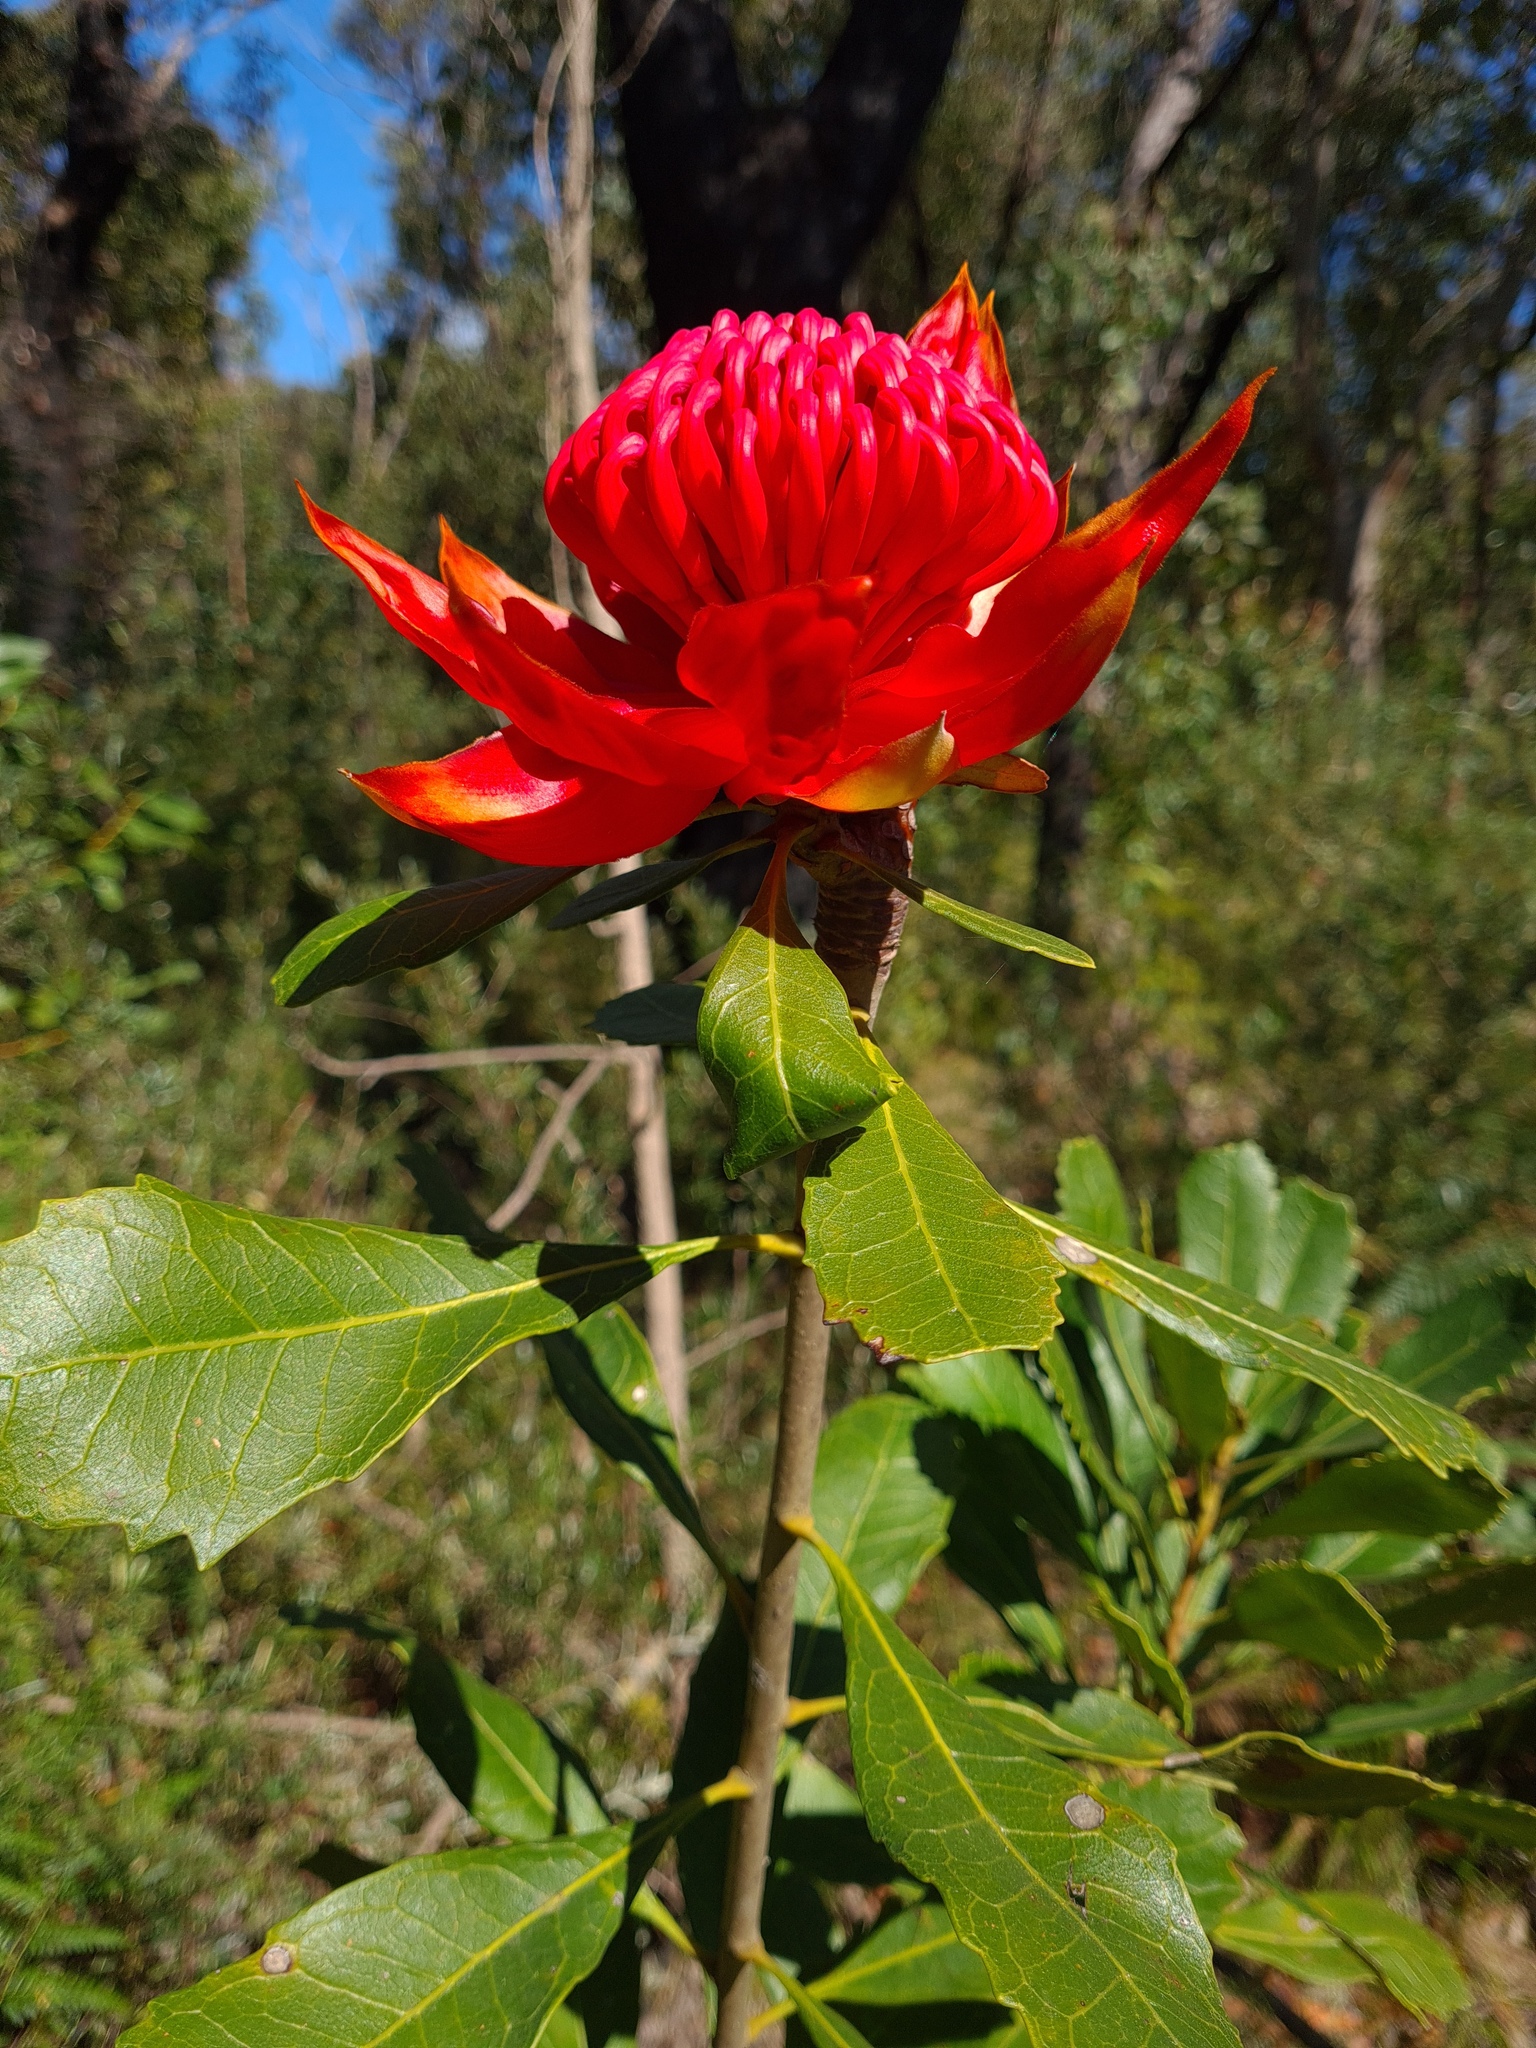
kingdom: Plantae
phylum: Tracheophyta
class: Magnoliopsida
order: Proteales
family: Proteaceae
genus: Telopea
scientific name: Telopea speciosissima
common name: New south wales waratah
